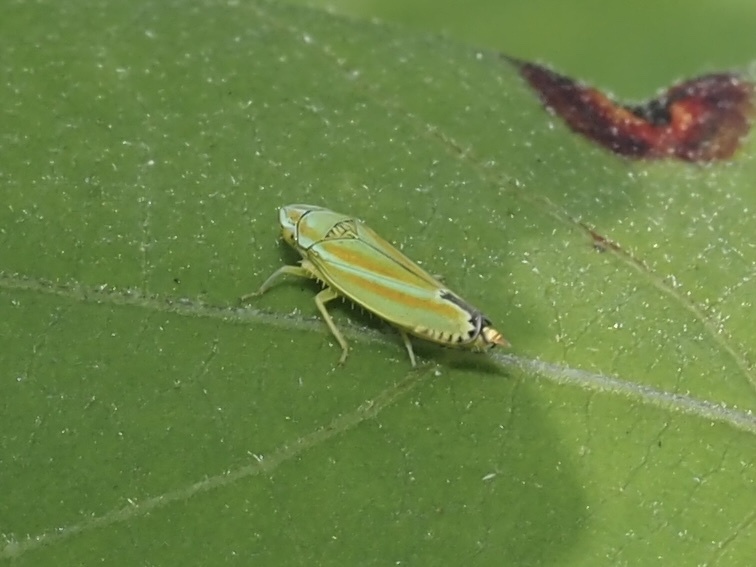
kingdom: Animalia
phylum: Arthropoda
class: Insecta
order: Hemiptera
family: Cicadellidae
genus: Graphocephala
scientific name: Graphocephala versuta
